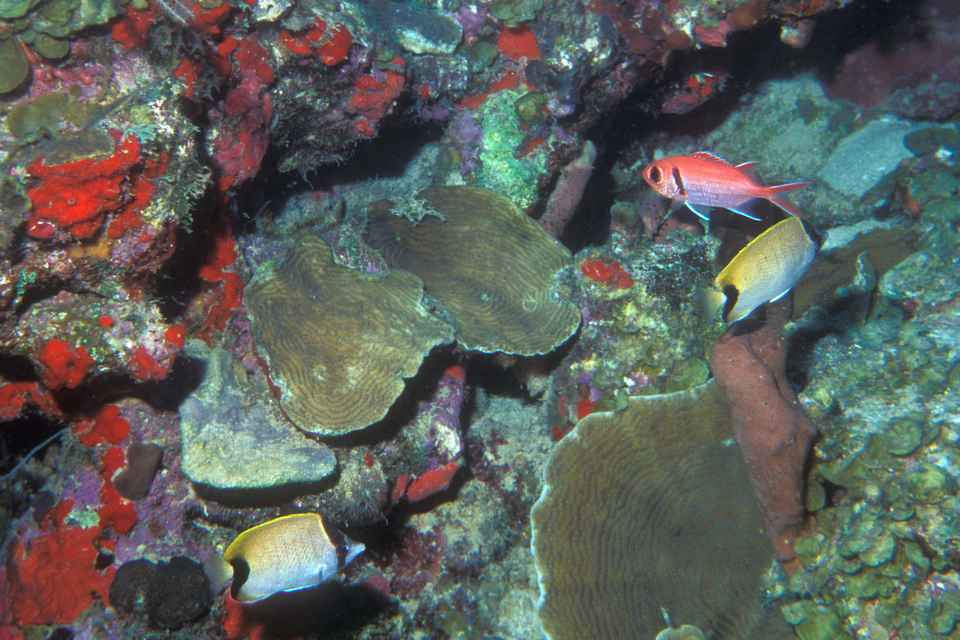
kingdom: Animalia
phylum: Chordata
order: Perciformes
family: Chaetodontidae
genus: Chaetodon
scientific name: Chaetodon sedentarius
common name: Reef butterflyfish
